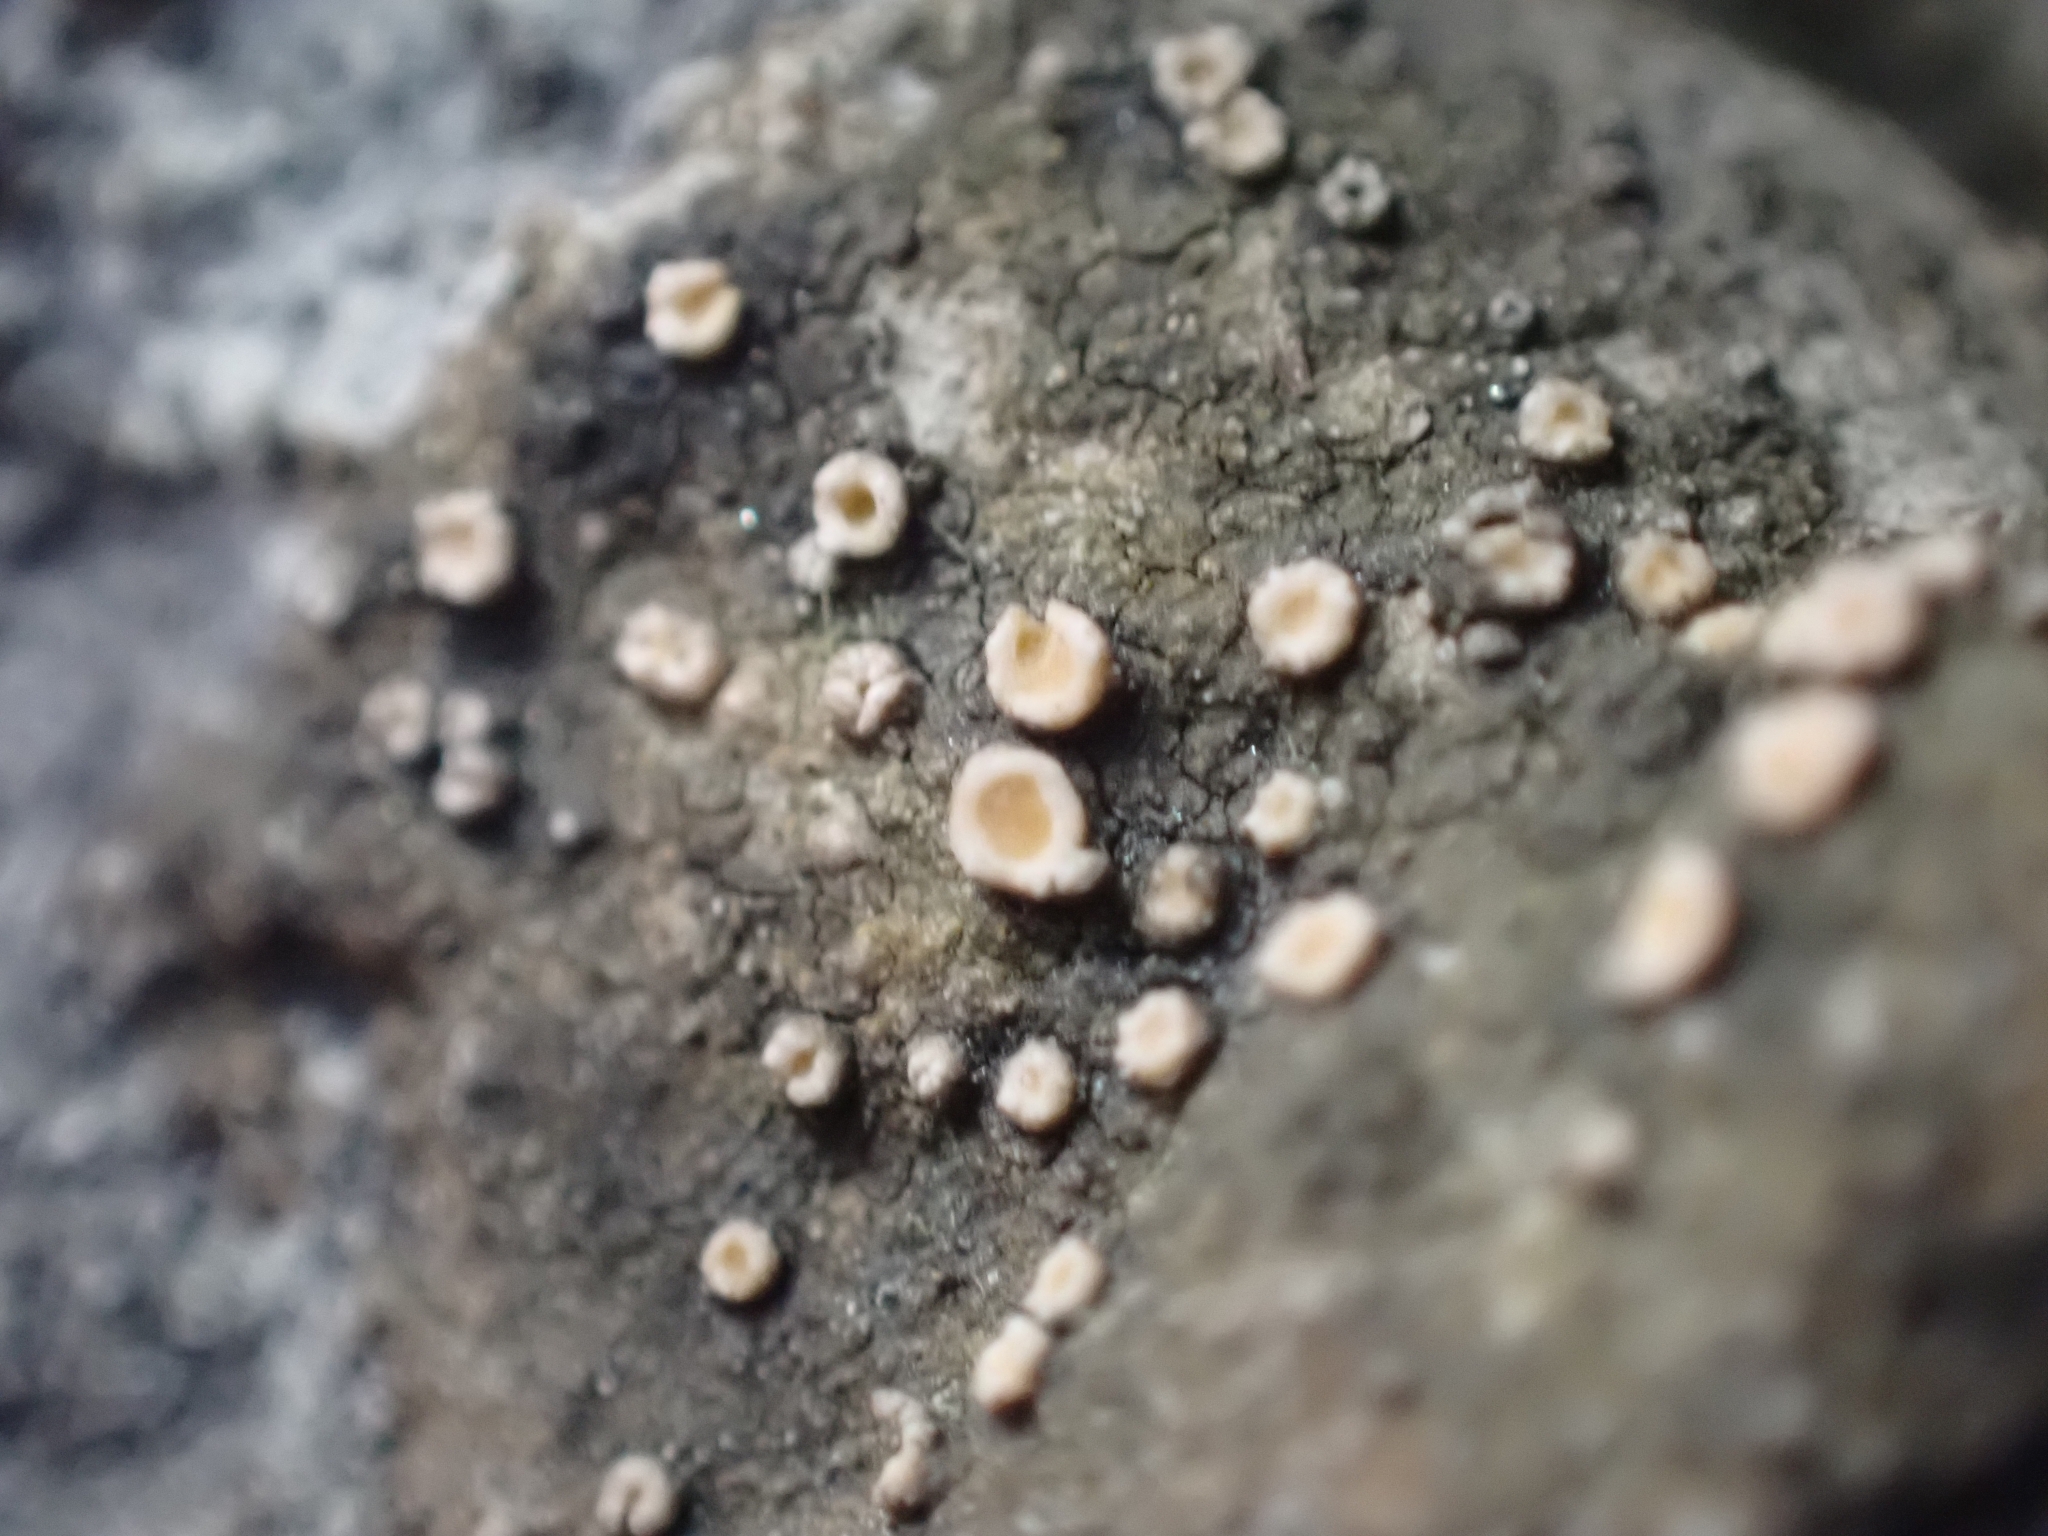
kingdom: Fungi
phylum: Ascomycota
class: Lecanoromycetes
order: Gyalectales
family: Gyalectaceae
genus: Gyalecta
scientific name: Gyalecta jenensis
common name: Rock dimple lichen
